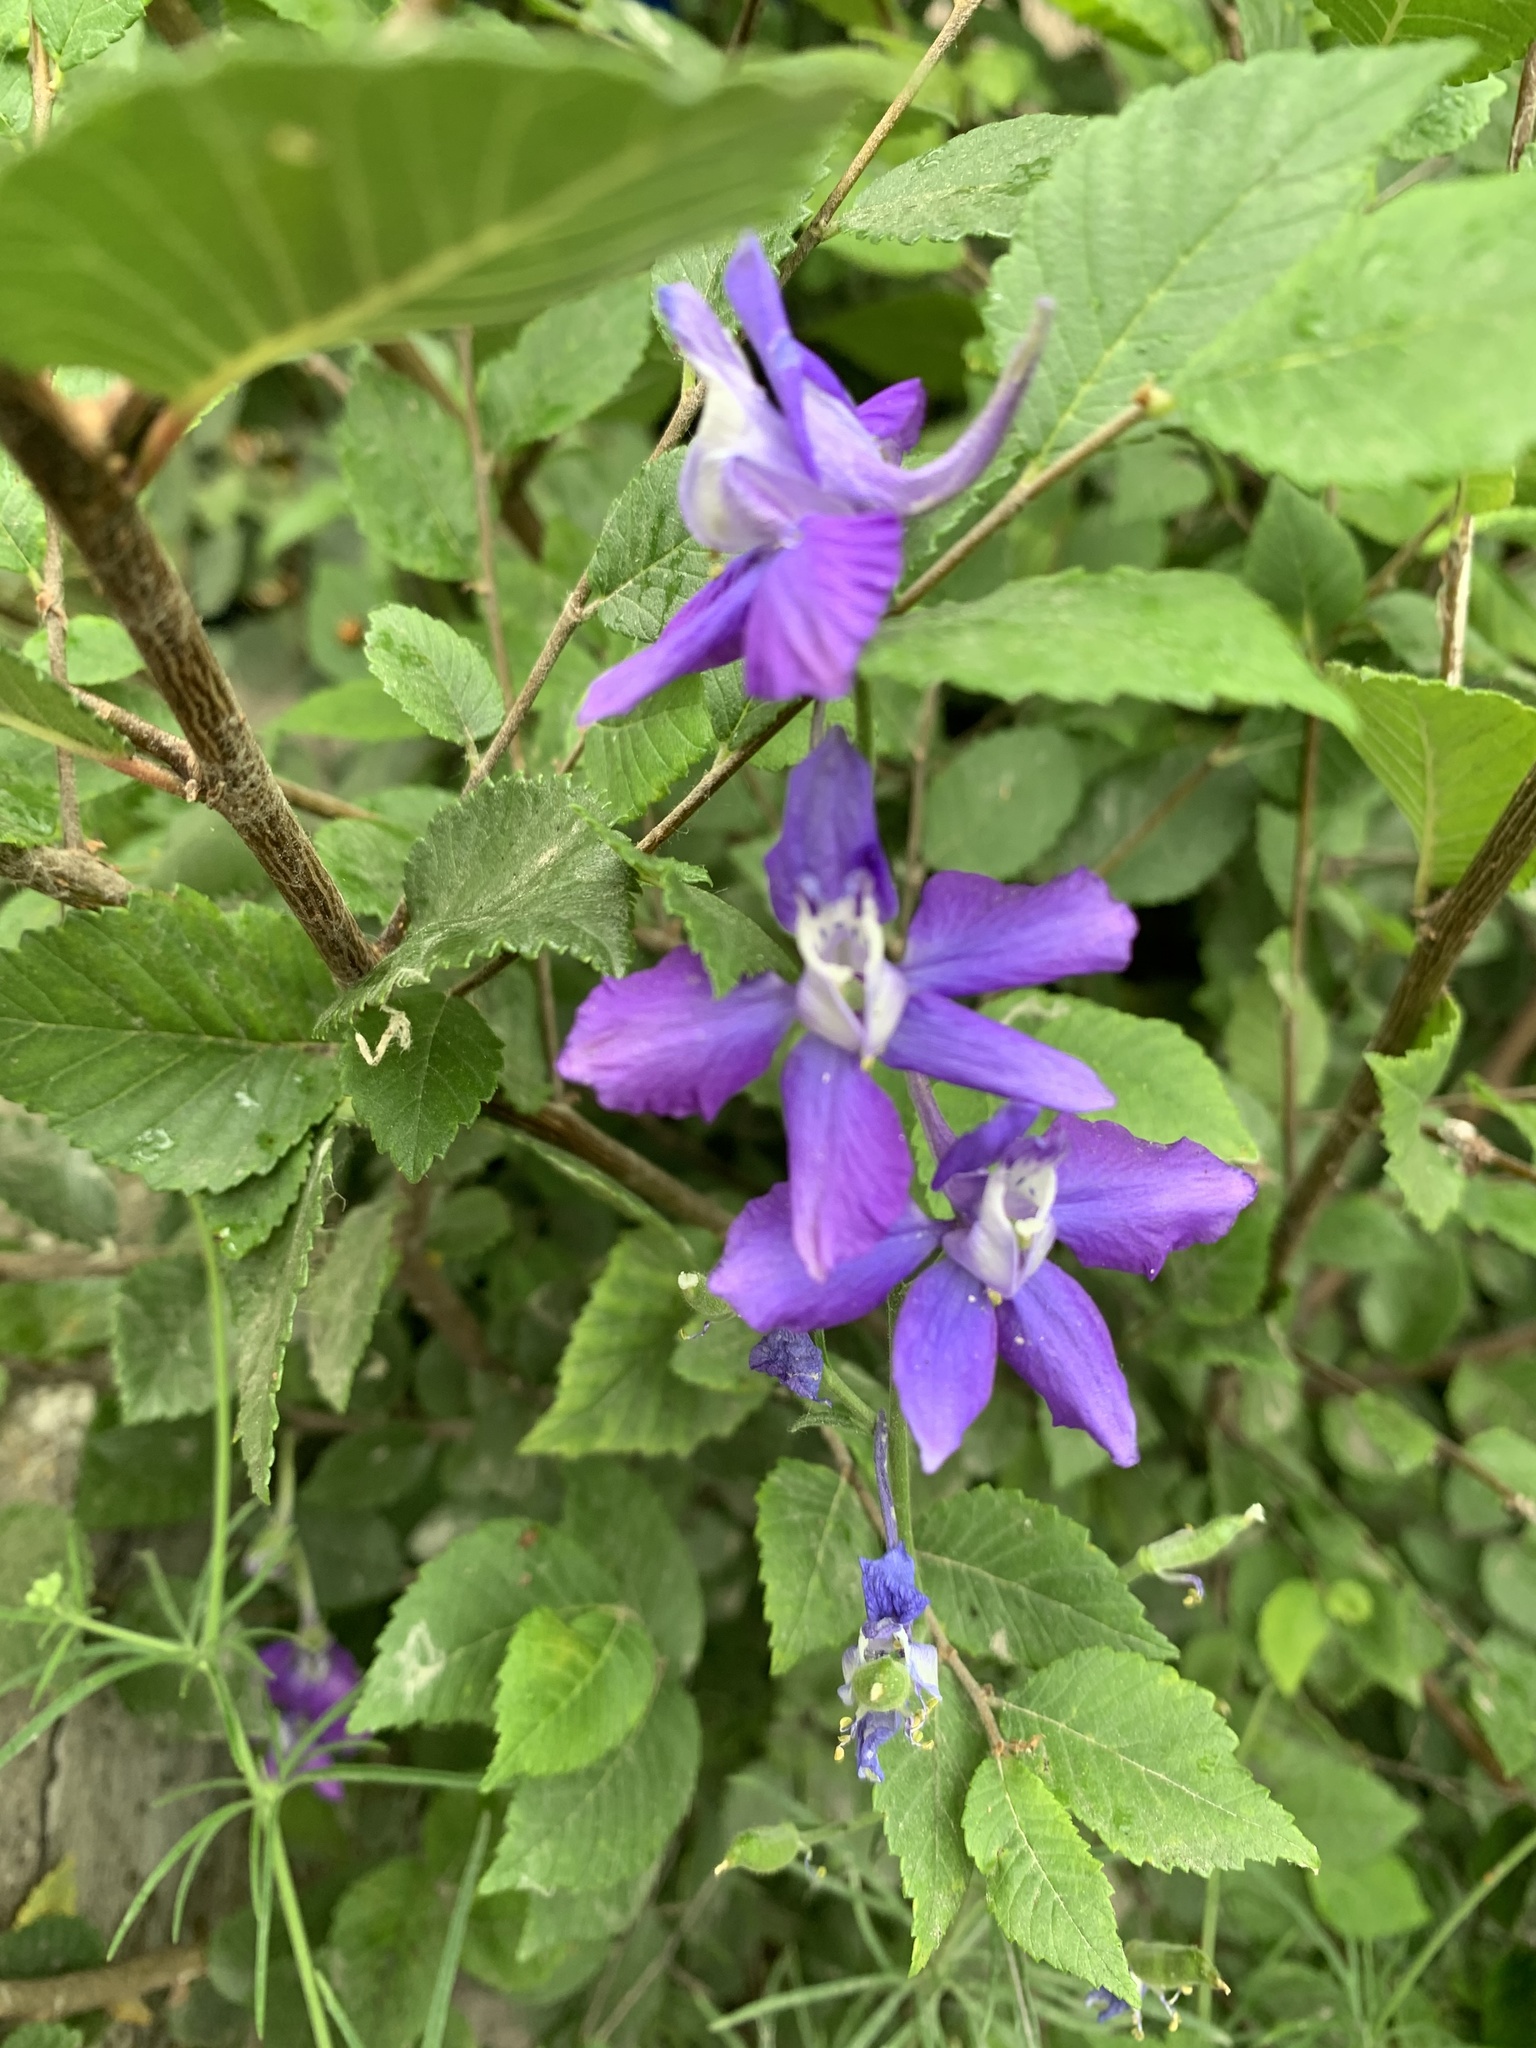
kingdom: Plantae
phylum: Tracheophyta
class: Magnoliopsida
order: Ranunculales
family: Ranunculaceae
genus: Delphinium
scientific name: Delphinium ajacis
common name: Doubtful knight's-spur
